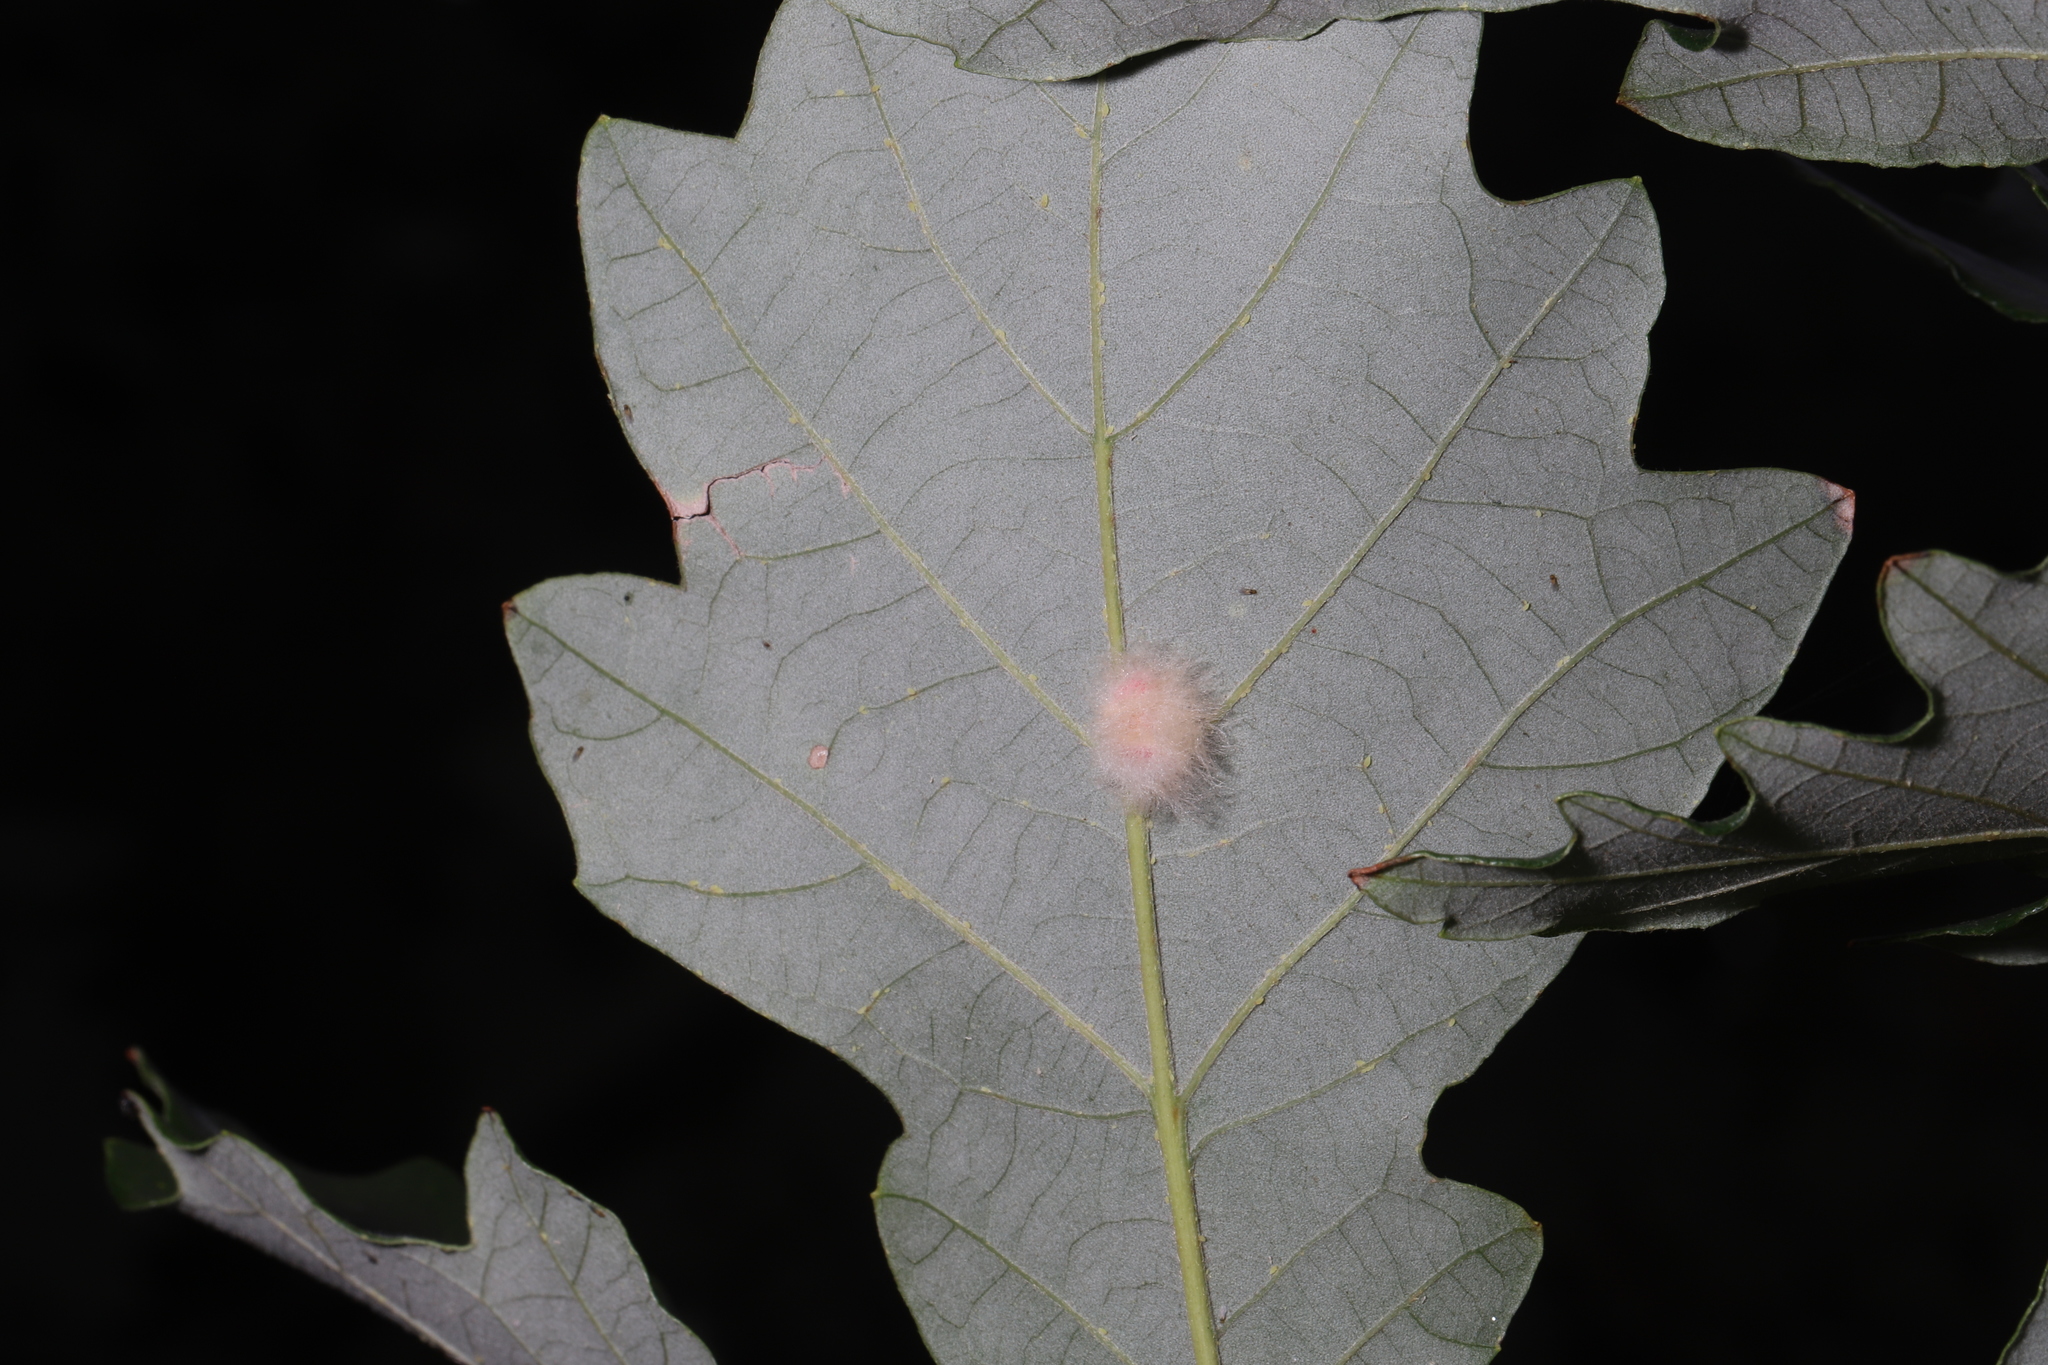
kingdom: Animalia
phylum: Arthropoda
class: Insecta
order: Hymenoptera
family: Cynipidae
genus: Andricus
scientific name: Andricus Druon ignotum
